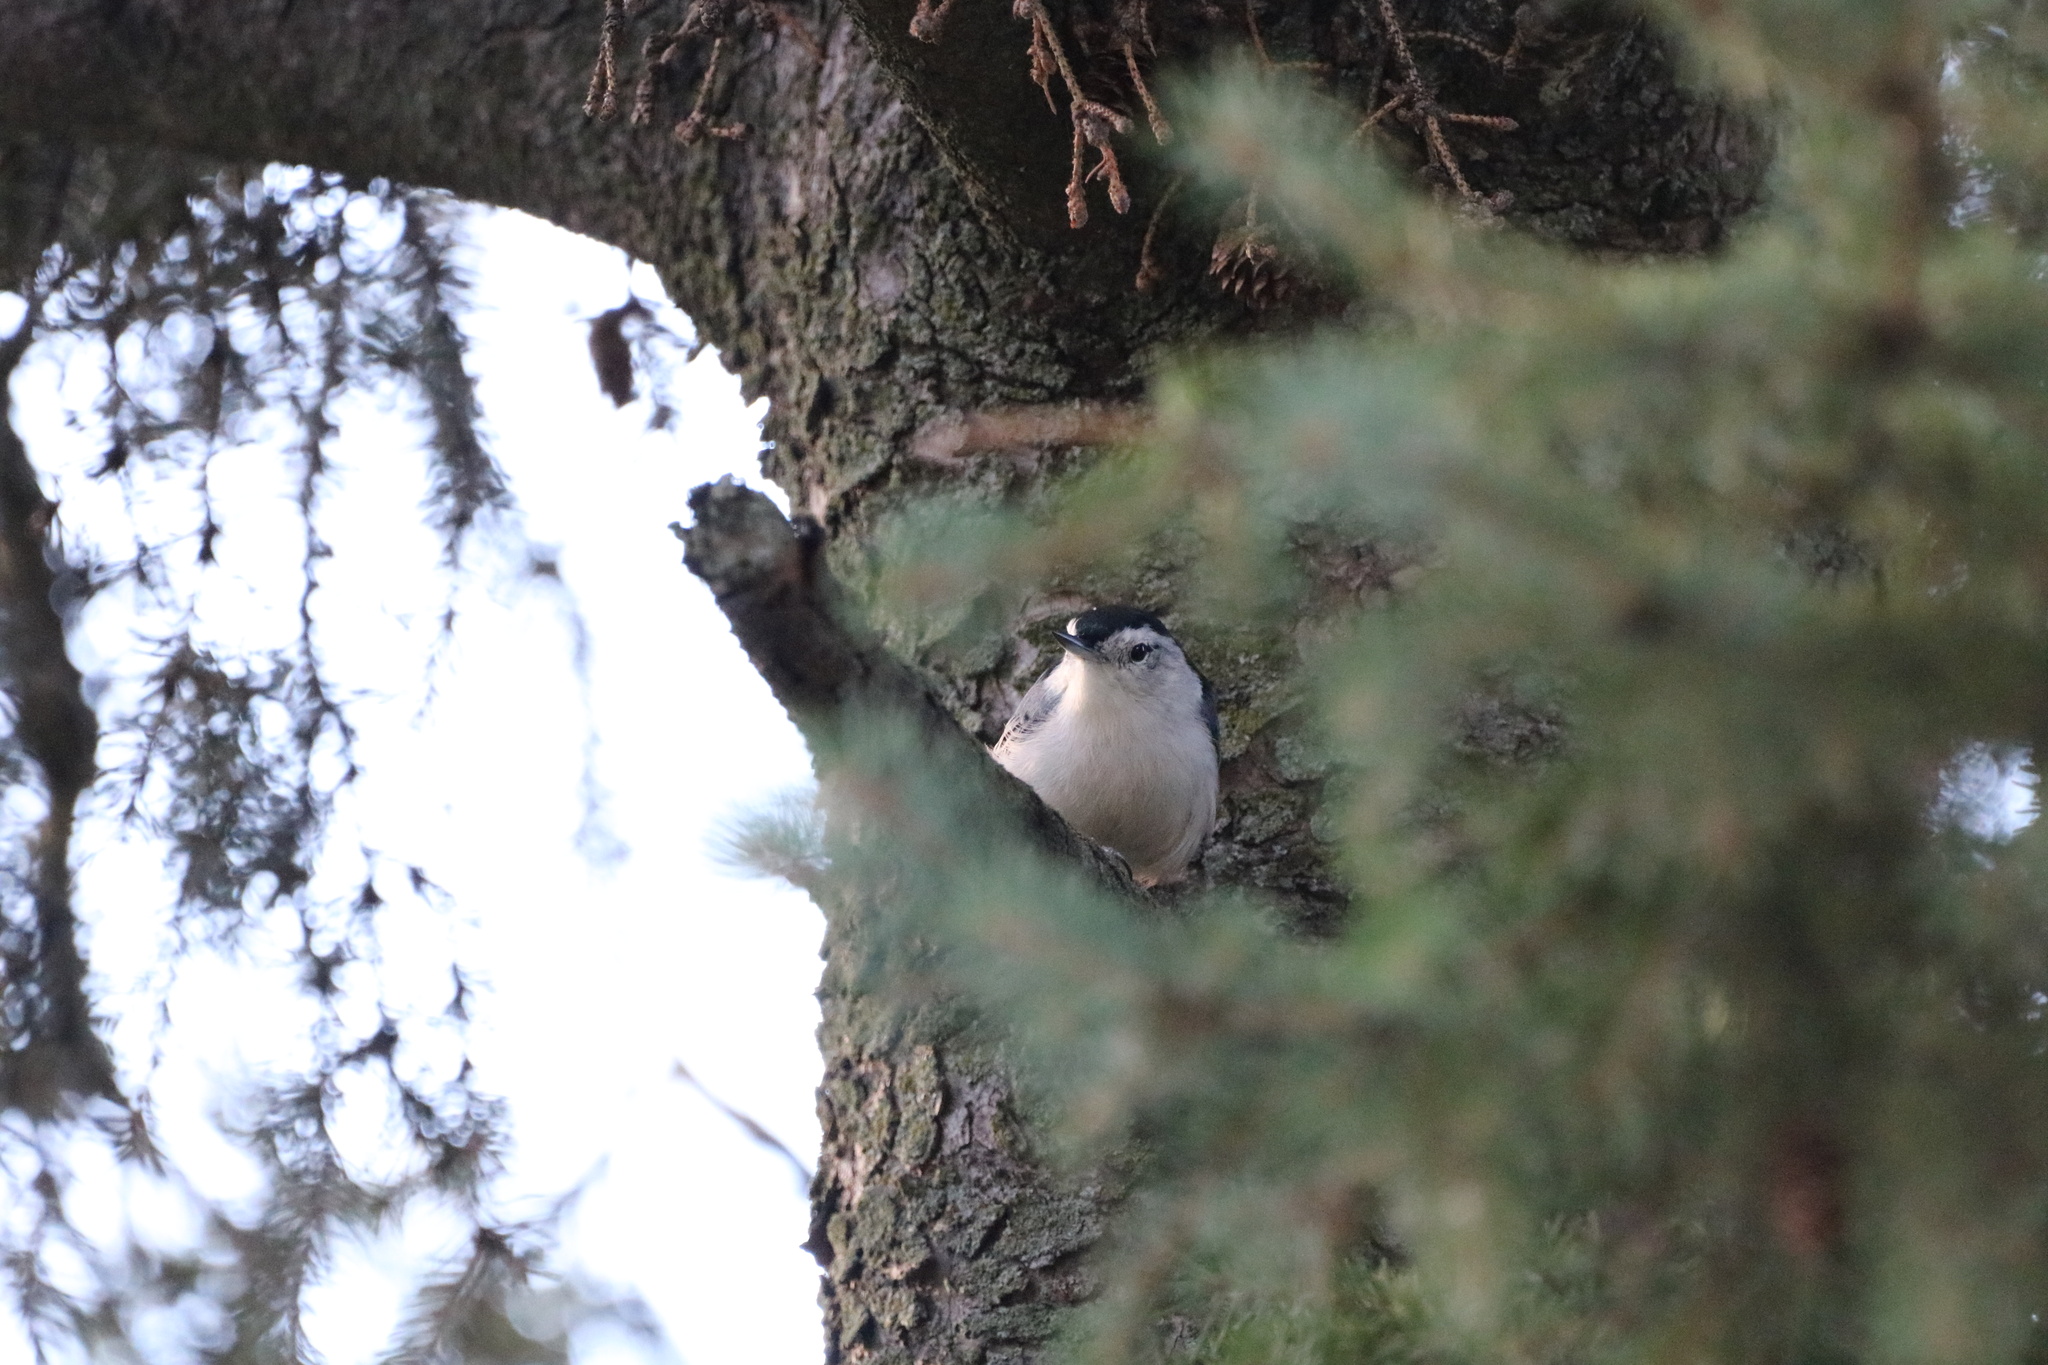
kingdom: Animalia
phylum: Chordata
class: Aves
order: Passeriformes
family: Sittidae
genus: Sitta
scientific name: Sitta carolinensis
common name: White-breasted nuthatch
